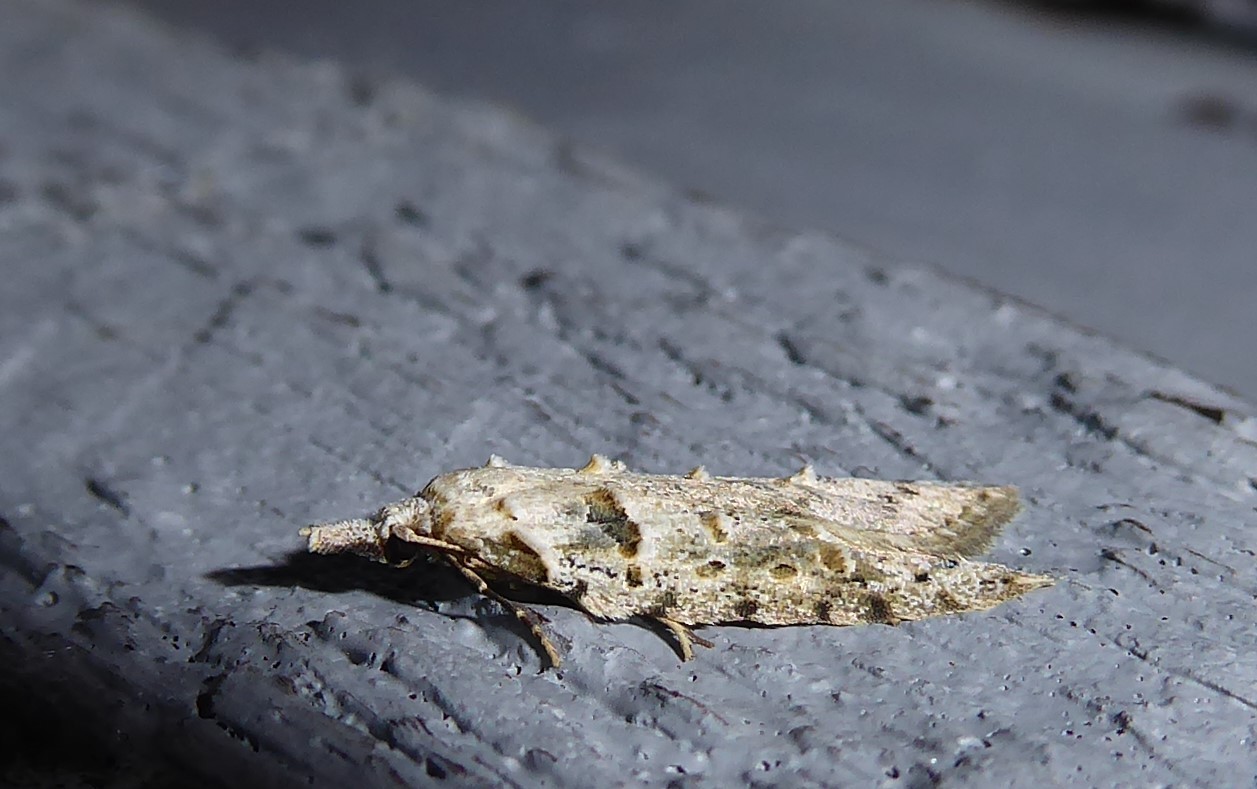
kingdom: Animalia
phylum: Arthropoda
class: Insecta
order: Lepidoptera
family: Carposinidae
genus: Carposina
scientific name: Carposina
